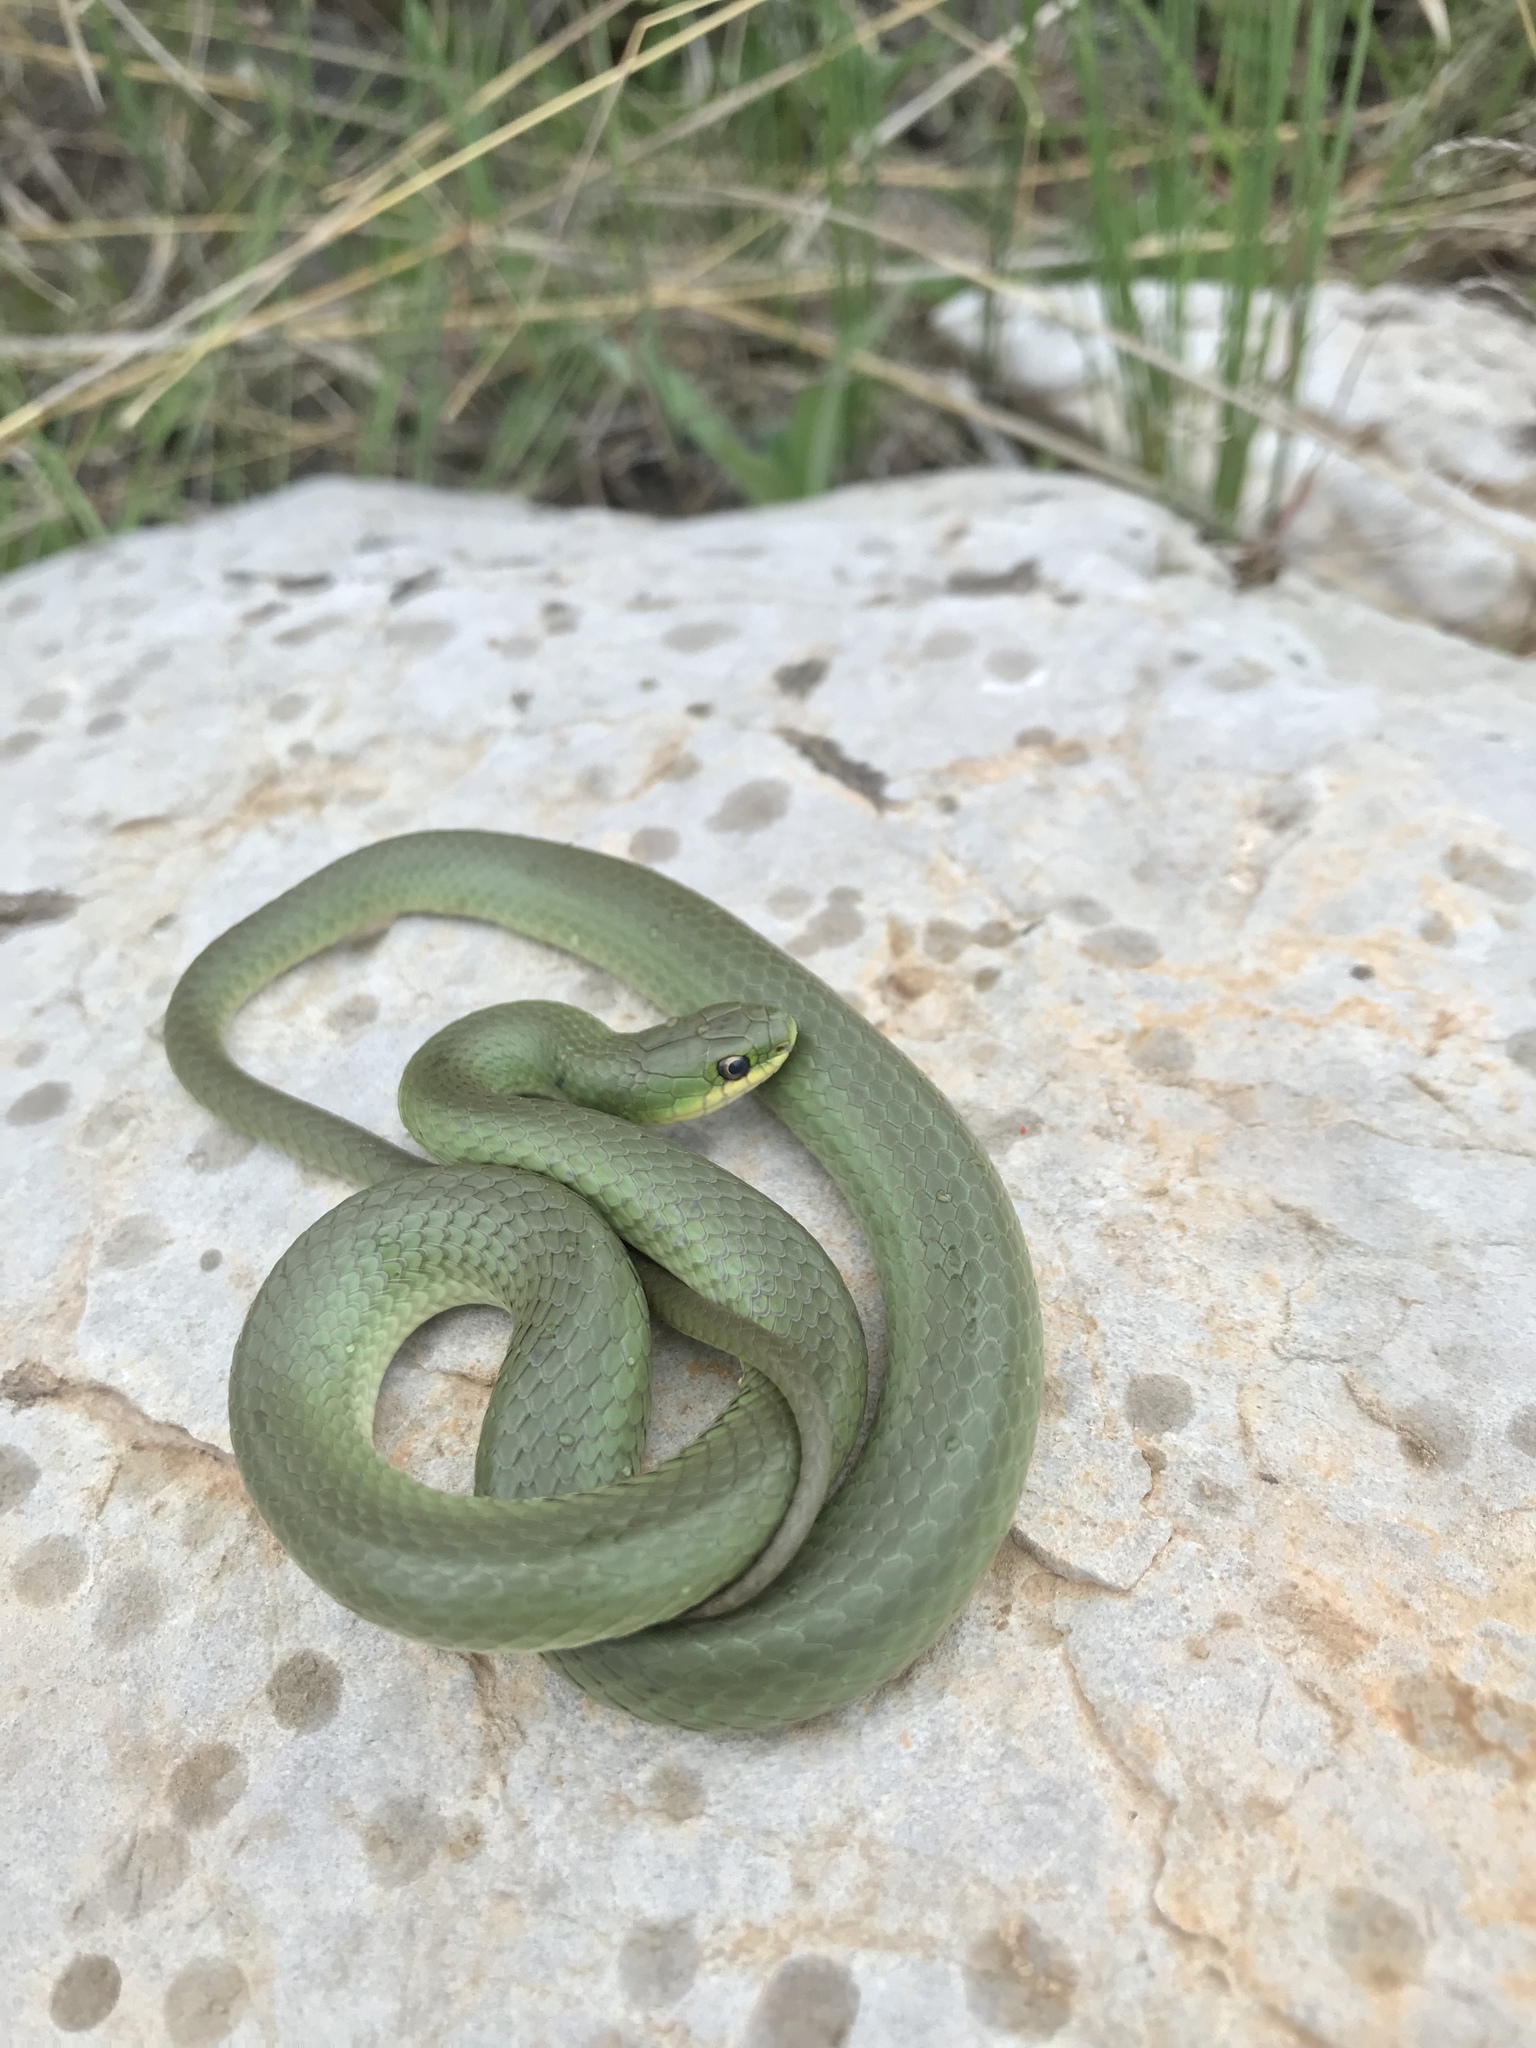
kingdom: Animalia
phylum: Chordata
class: Squamata
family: Colubridae
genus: Opheodrys
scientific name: Opheodrys vernalis
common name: Smooth green snake
